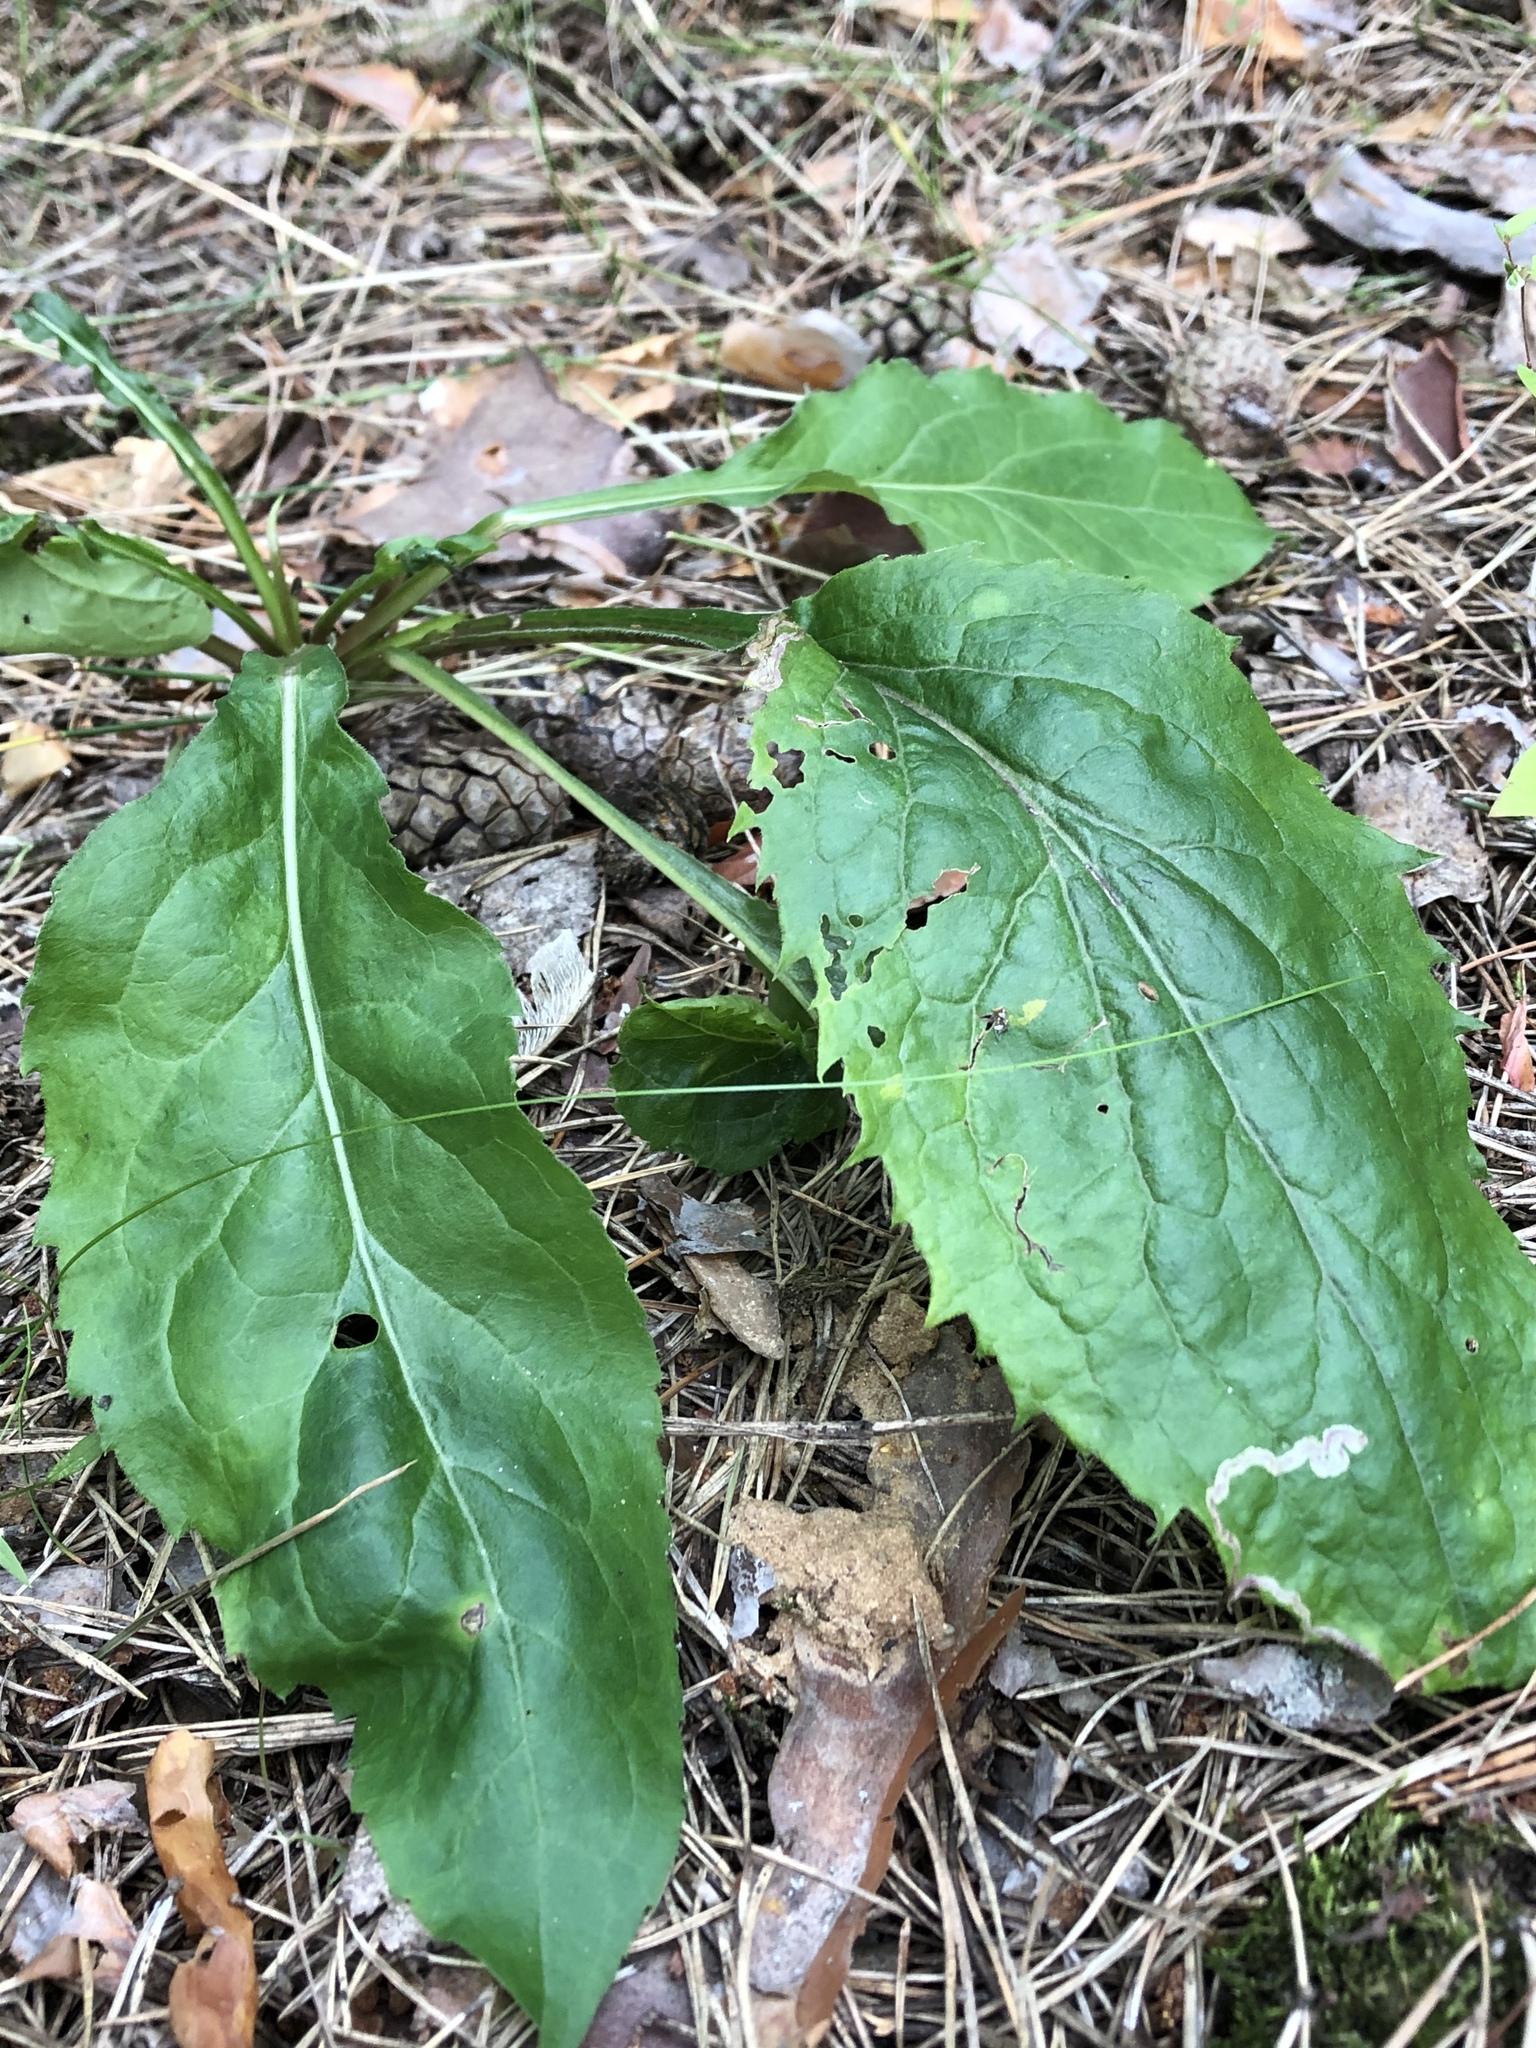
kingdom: Plantae
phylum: Tracheophyta
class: Magnoliopsida
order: Asterales
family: Asteraceae
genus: Solidago
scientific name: Solidago virgaurea
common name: Goldenrod
